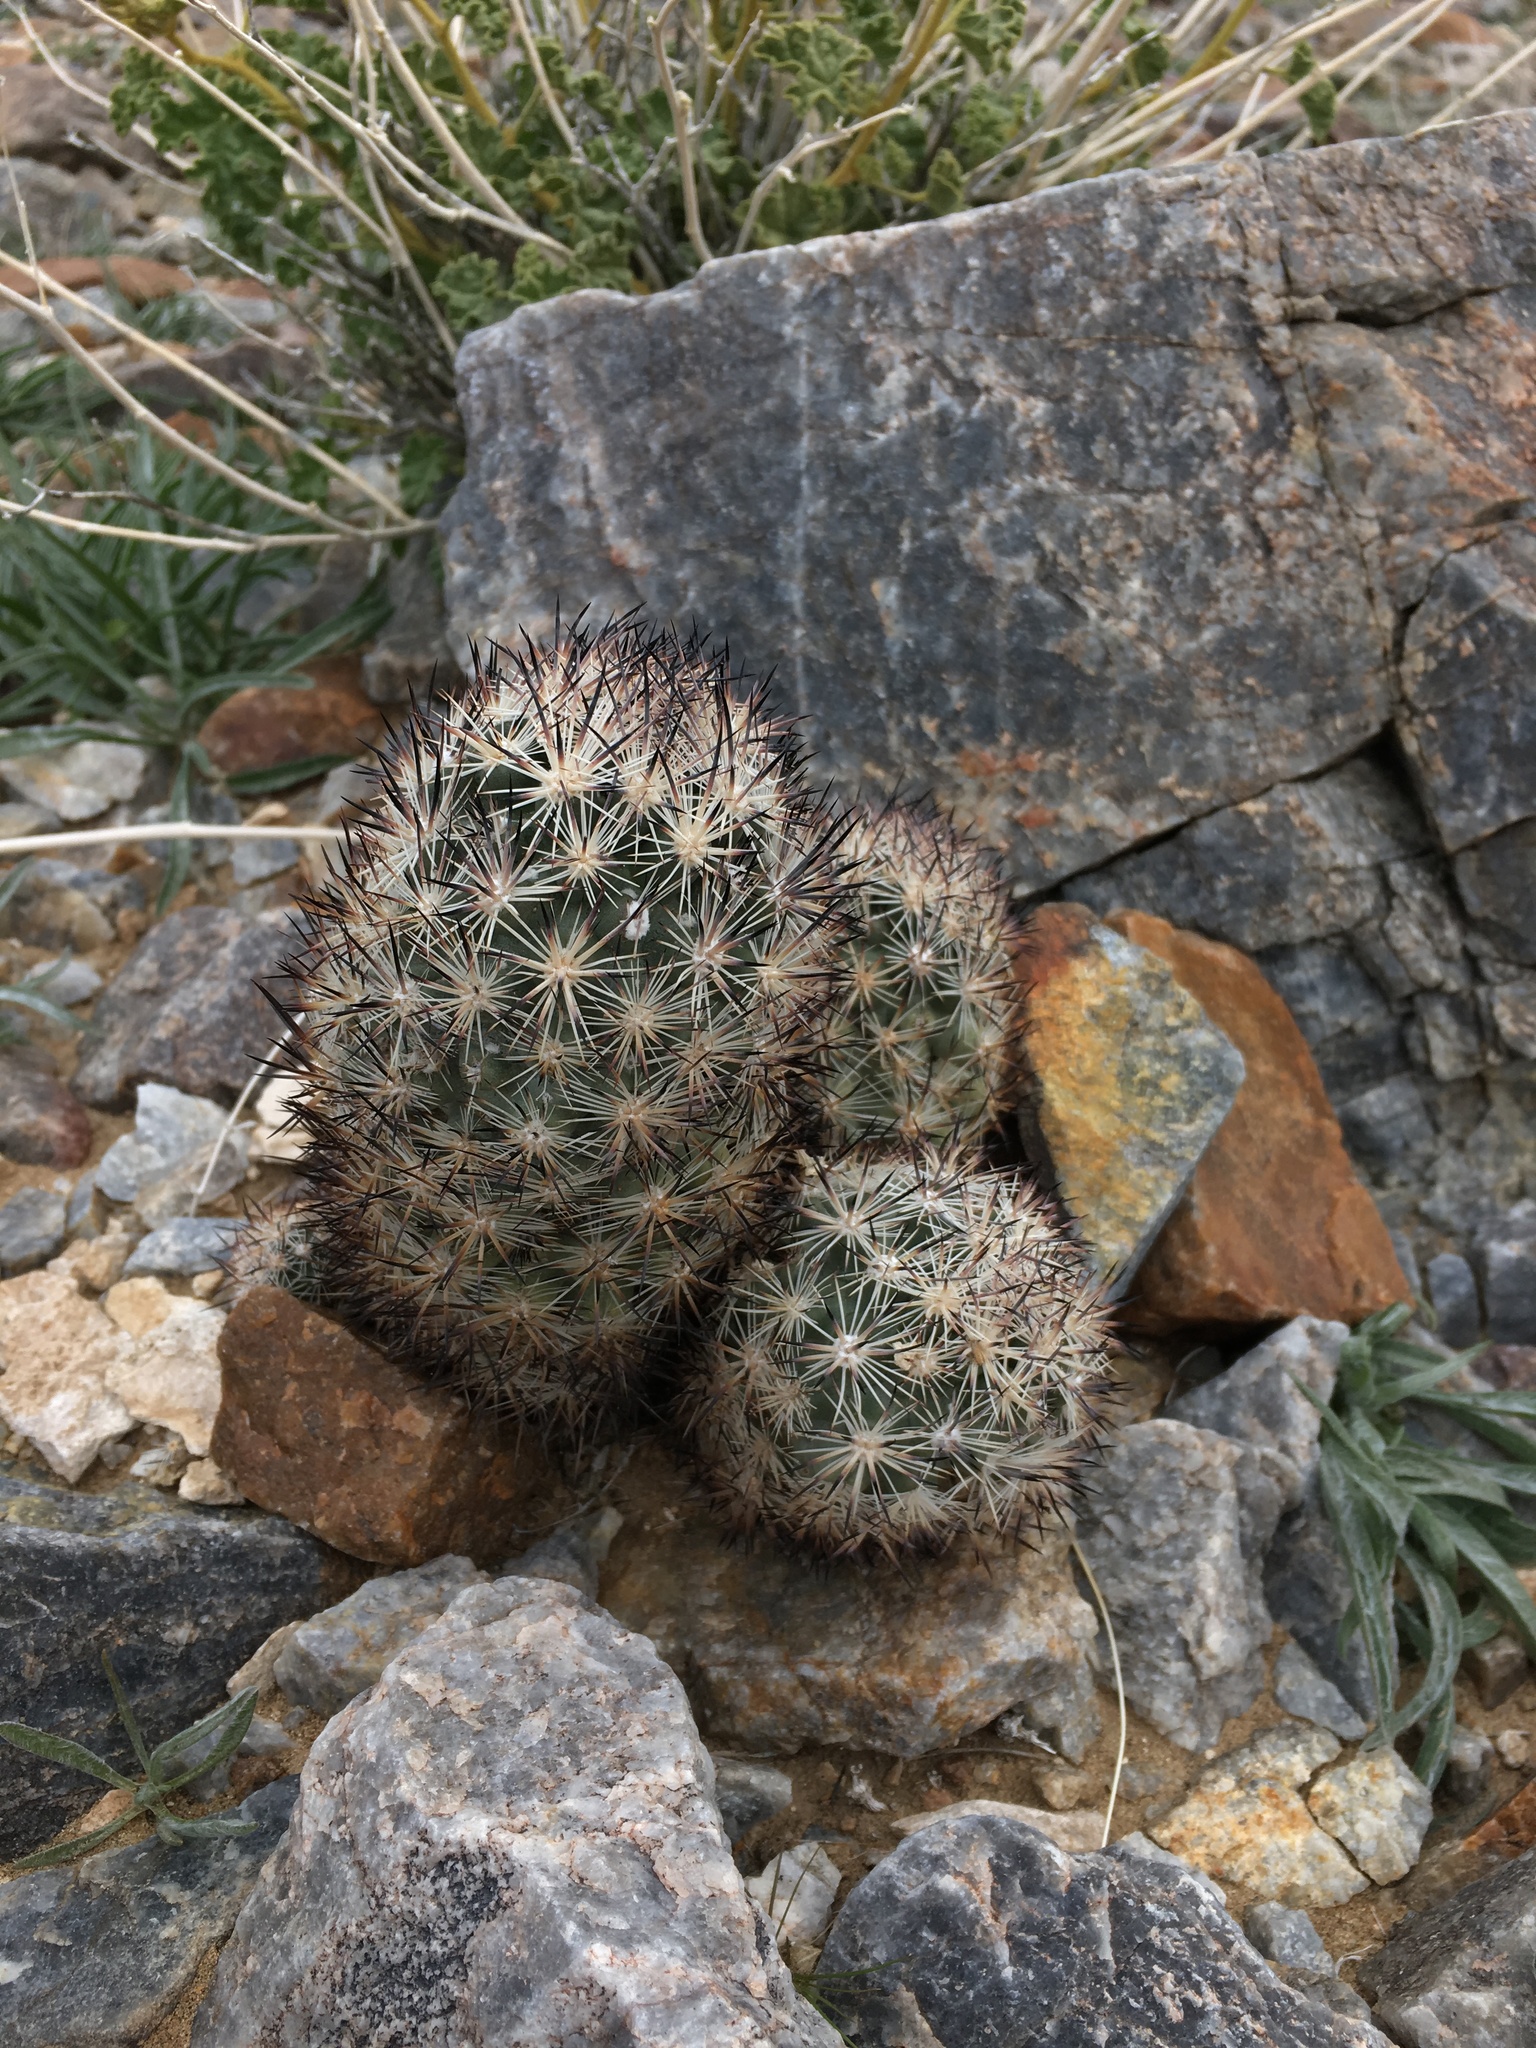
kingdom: Plantae
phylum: Tracheophyta
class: Magnoliopsida
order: Caryophyllales
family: Cactaceae
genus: Pelecyphora
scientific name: Pelecyphora alversonii
